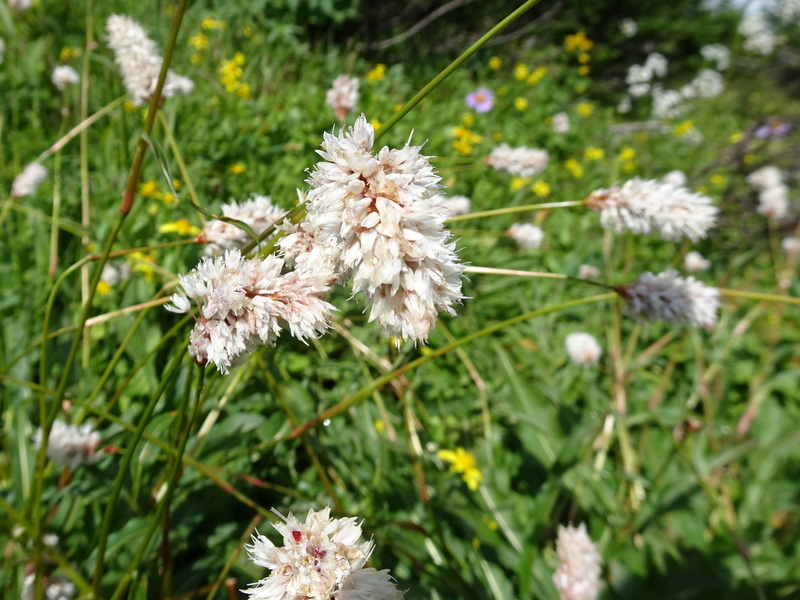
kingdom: Plantae
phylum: Tracheophyta
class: Magnoliopsida
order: Caryophyllales
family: Polygonaceae
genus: Bistorta
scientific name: Bistorta bistortoides
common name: American bistort
